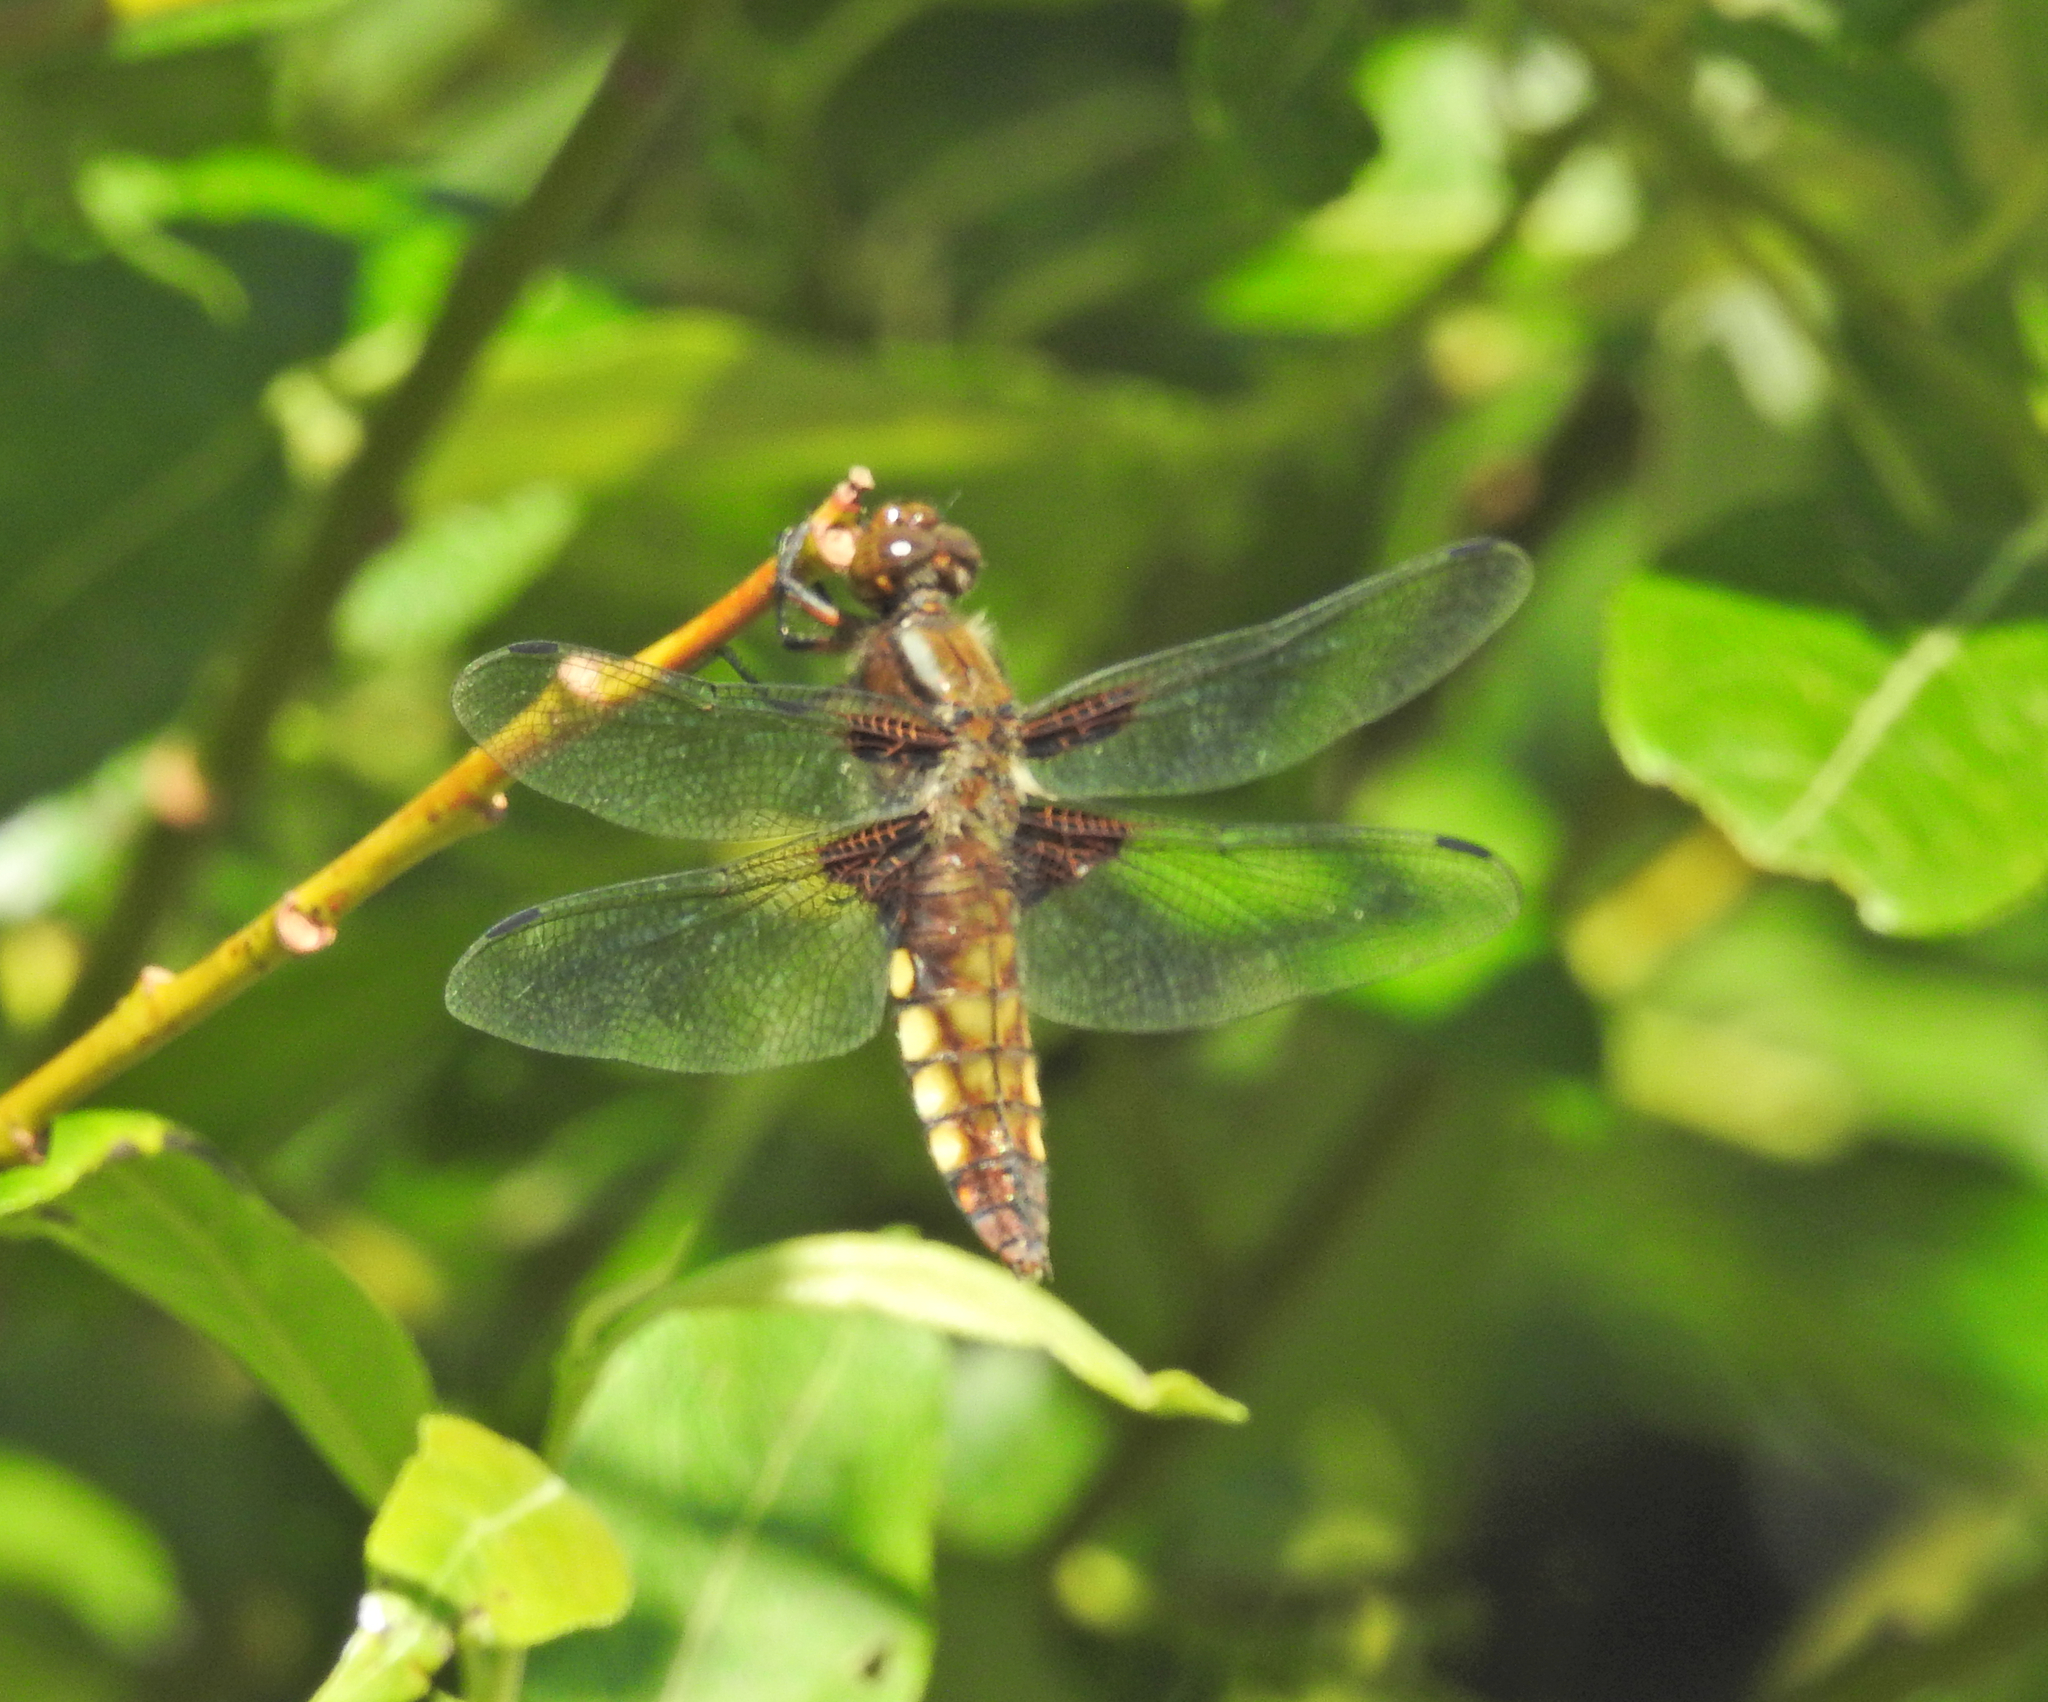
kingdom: Animalia
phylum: Arthropoda
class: Insecta
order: Odonata
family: Libellulidae
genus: Libellula
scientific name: Libellula depressa
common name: Broad-bodied chaser
